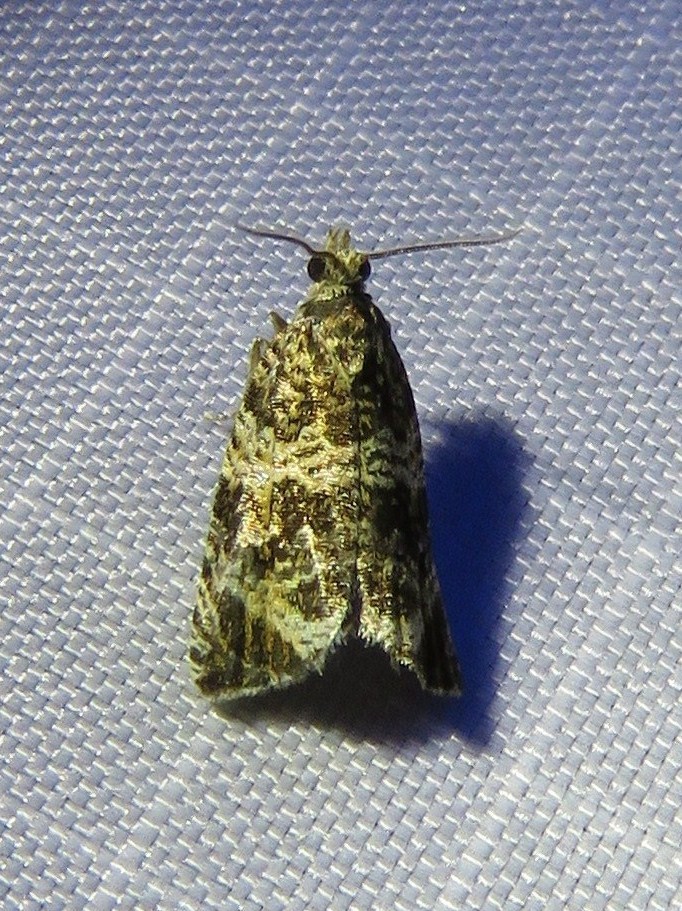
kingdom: Animalia
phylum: Arthropoda
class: Insecta
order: Lepidoptera
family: Tortricidae
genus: Syricoris
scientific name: Syricoris lacunana
